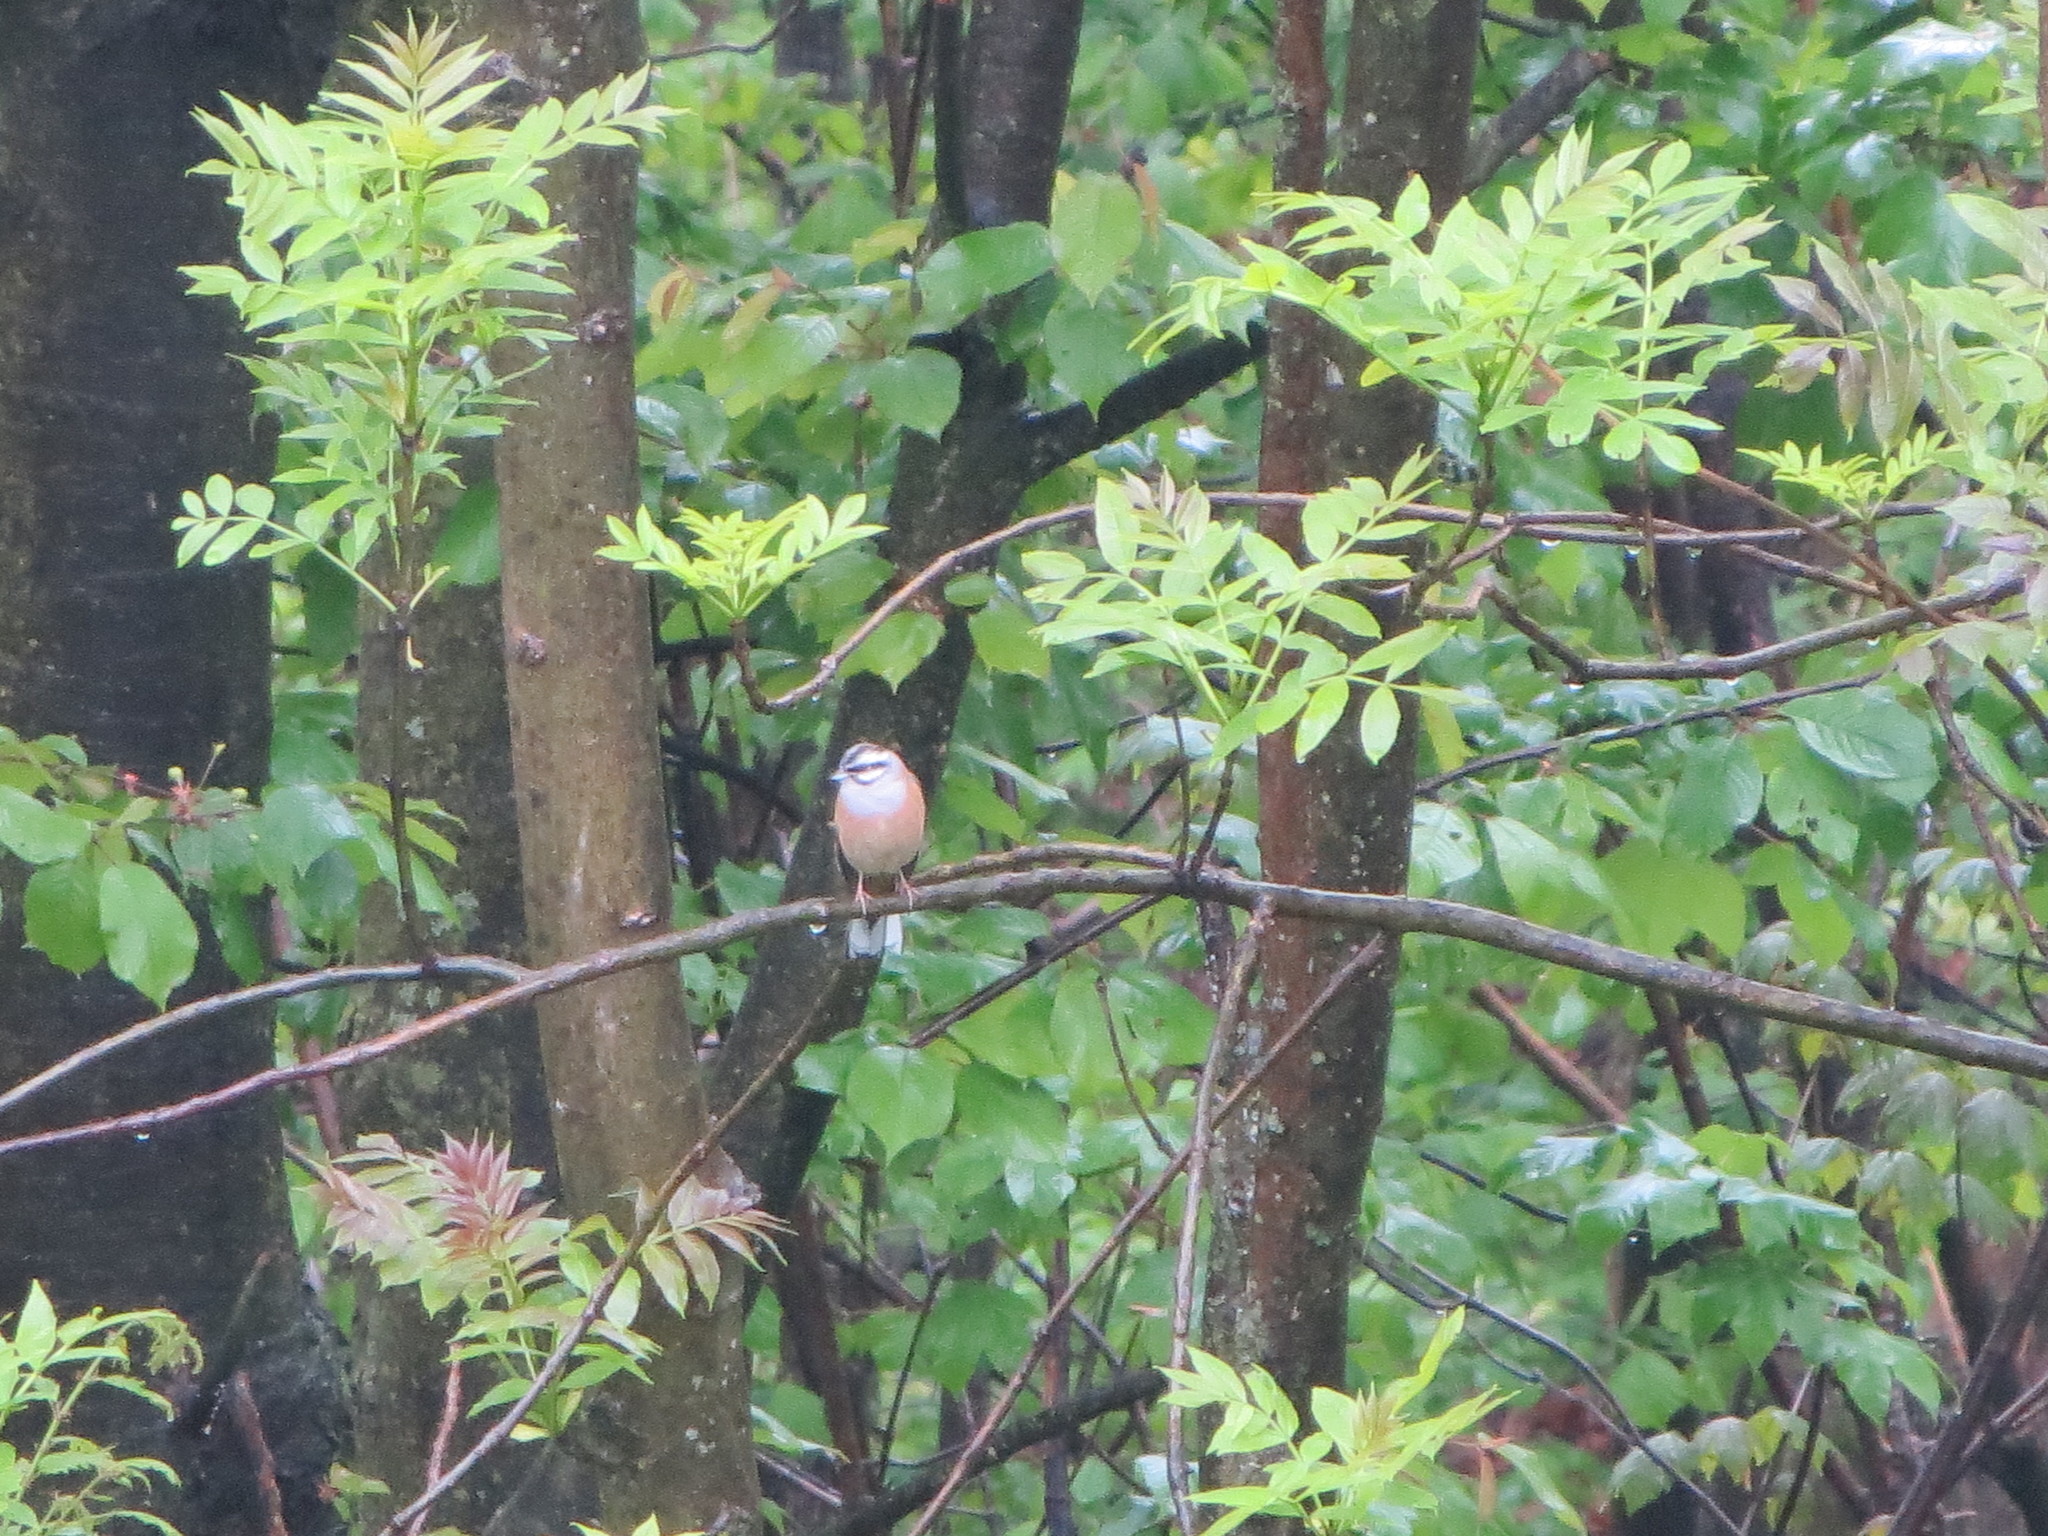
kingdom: Animalia
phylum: Chordata
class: Aves
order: Passeriformes
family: Emberizidae
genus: Emberiza
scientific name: Emberiza cia
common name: Rock bunting
